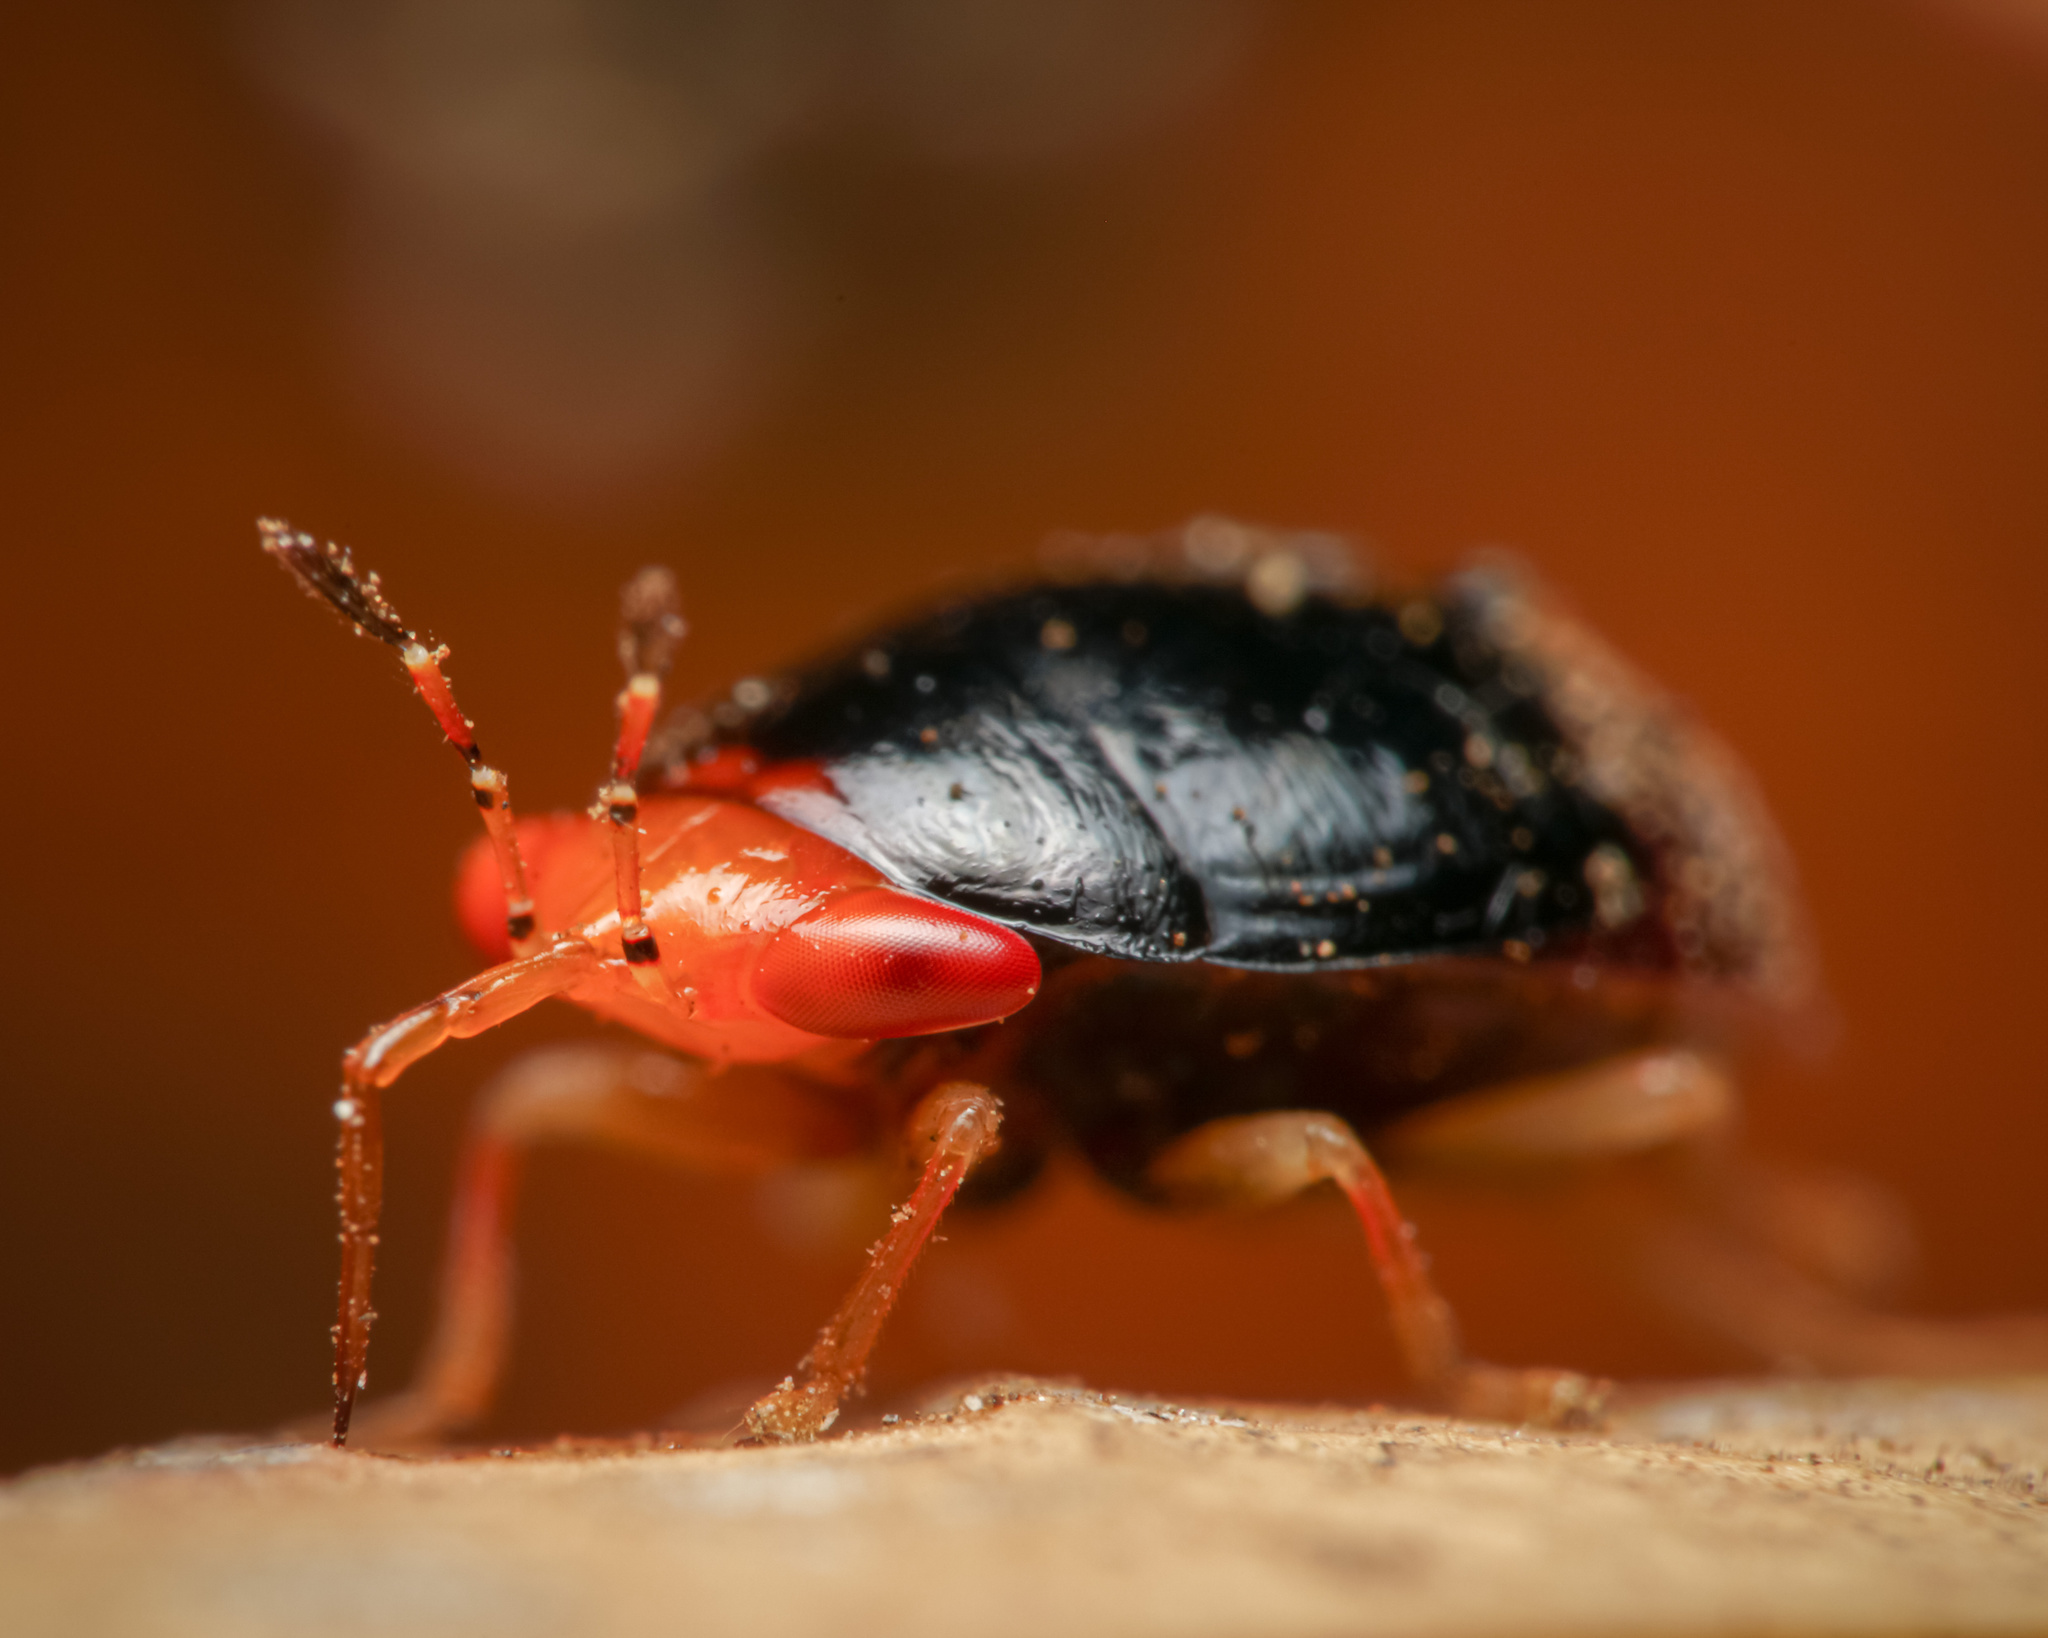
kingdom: Animalia
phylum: Arthropoda
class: Insecta
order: Hemiptera
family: Geocoridae
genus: Geocoris
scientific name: Geocoris flaviceps
